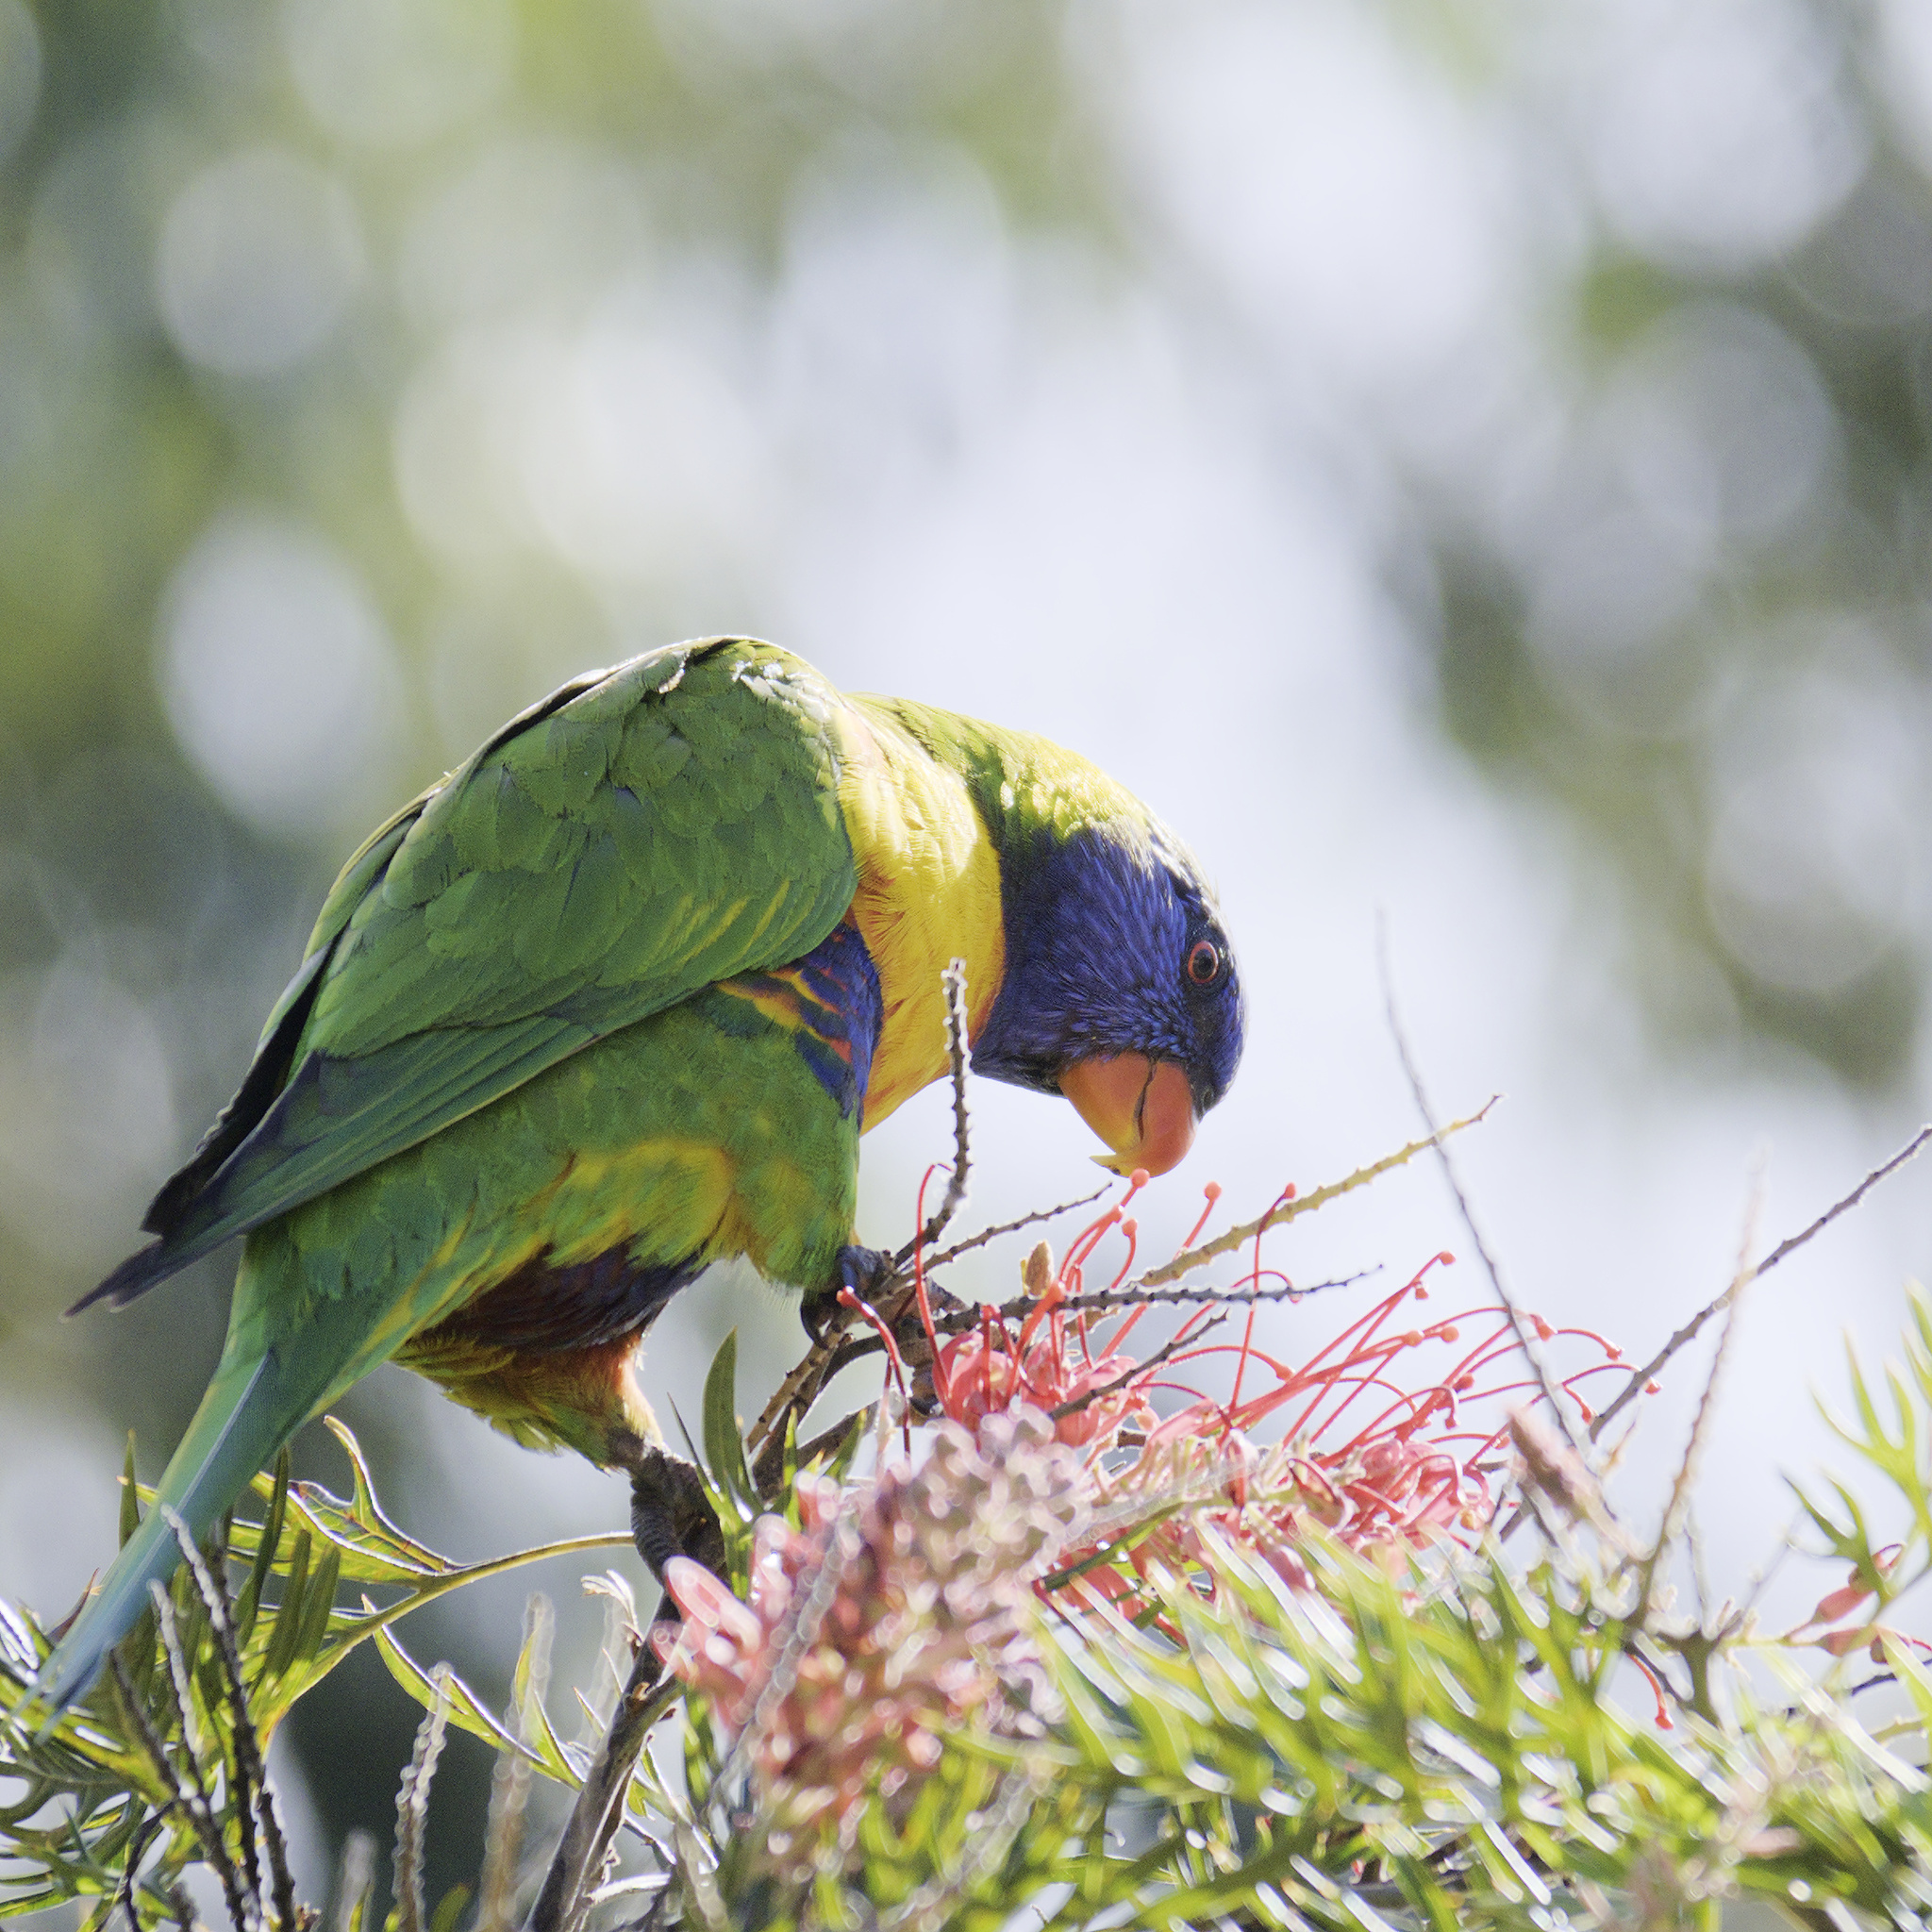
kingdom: Animalia
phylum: Chordata
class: Aves
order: Psittaciformes
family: Psittacidae
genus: Trichoglossus
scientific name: Trichoglossus haematodus
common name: Coconut lorikeet
